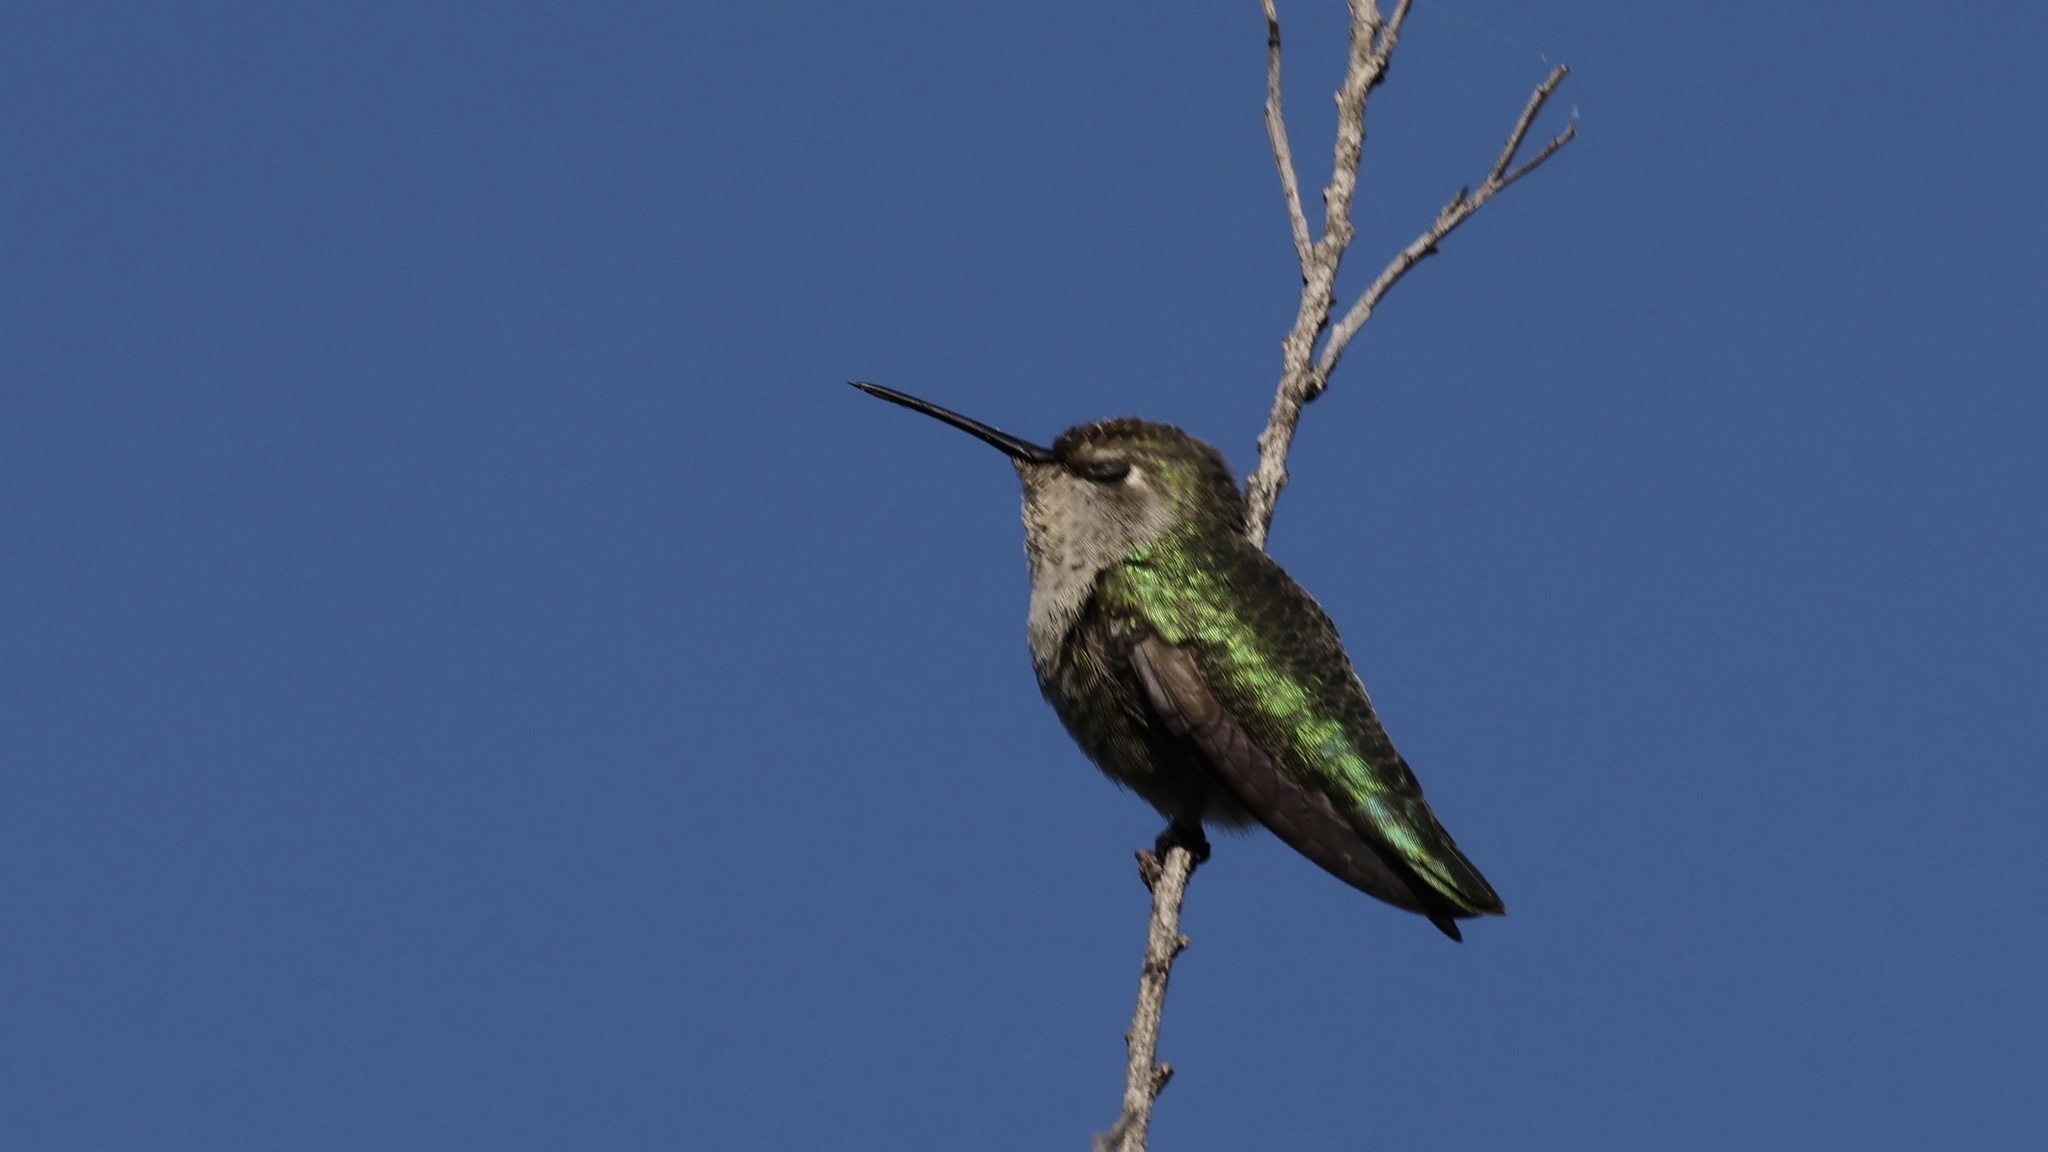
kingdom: Animalia
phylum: Chordata
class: Aves
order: Apodiformes
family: Trochilidae
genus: Calypte
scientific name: Calypte anna
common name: Anna's hummingbird
